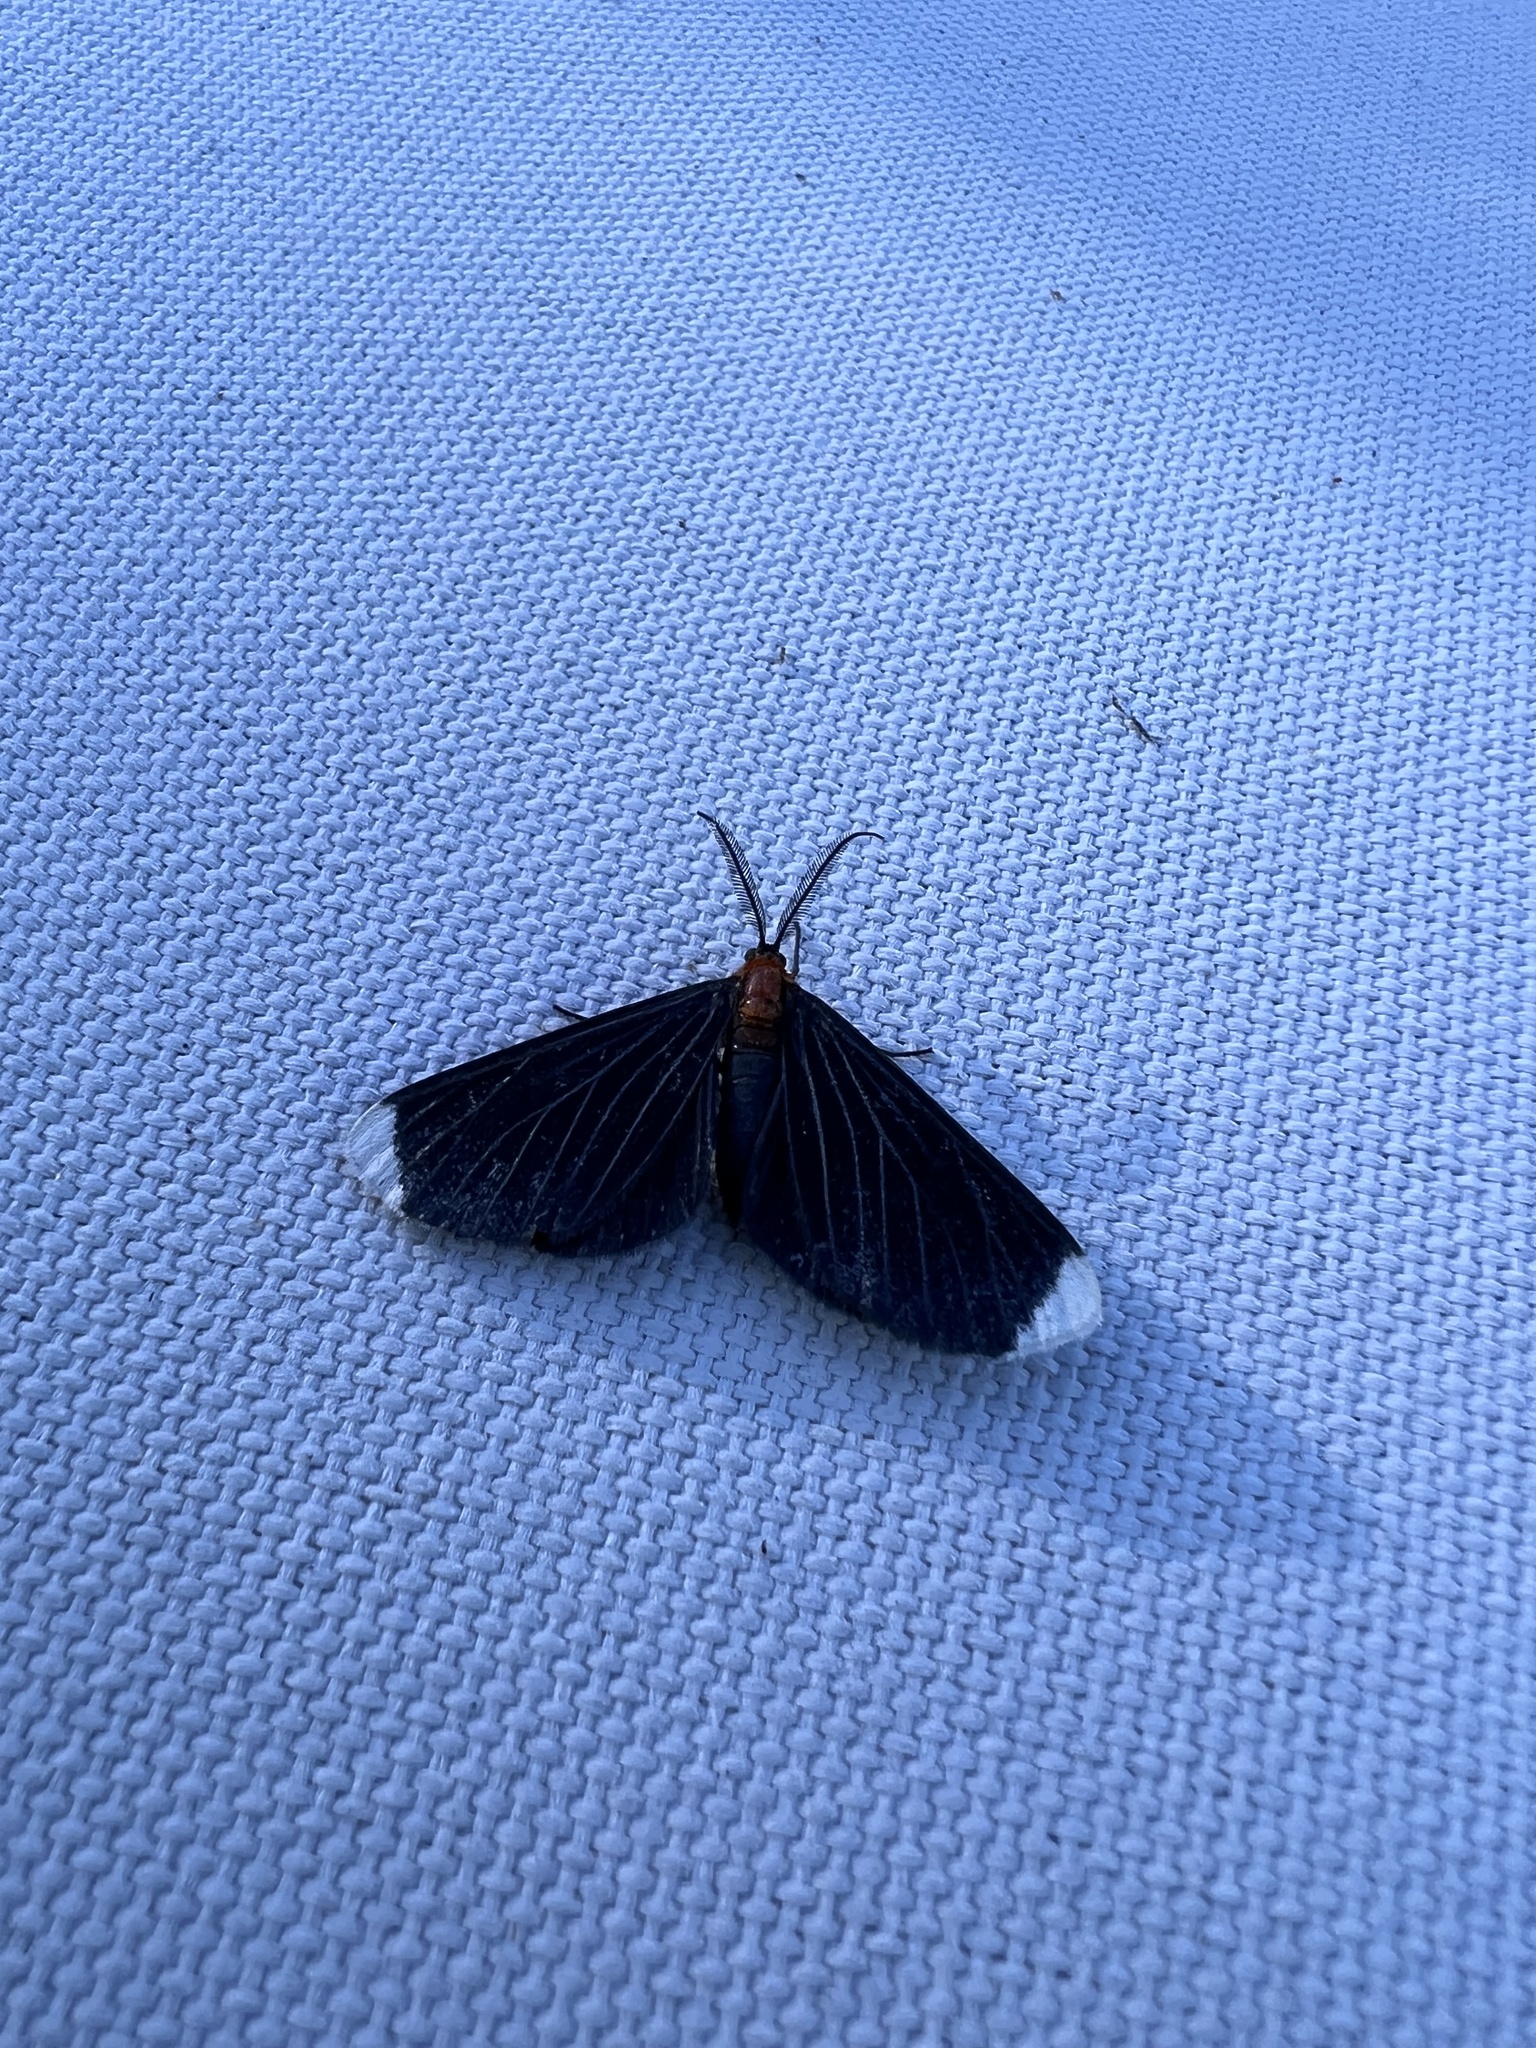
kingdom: Animalia
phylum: Arthropoda
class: Insecta
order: Lepidoptera
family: Geometridae
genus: Melanchroia
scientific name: Melanchroia chephise
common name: White-tipped black
